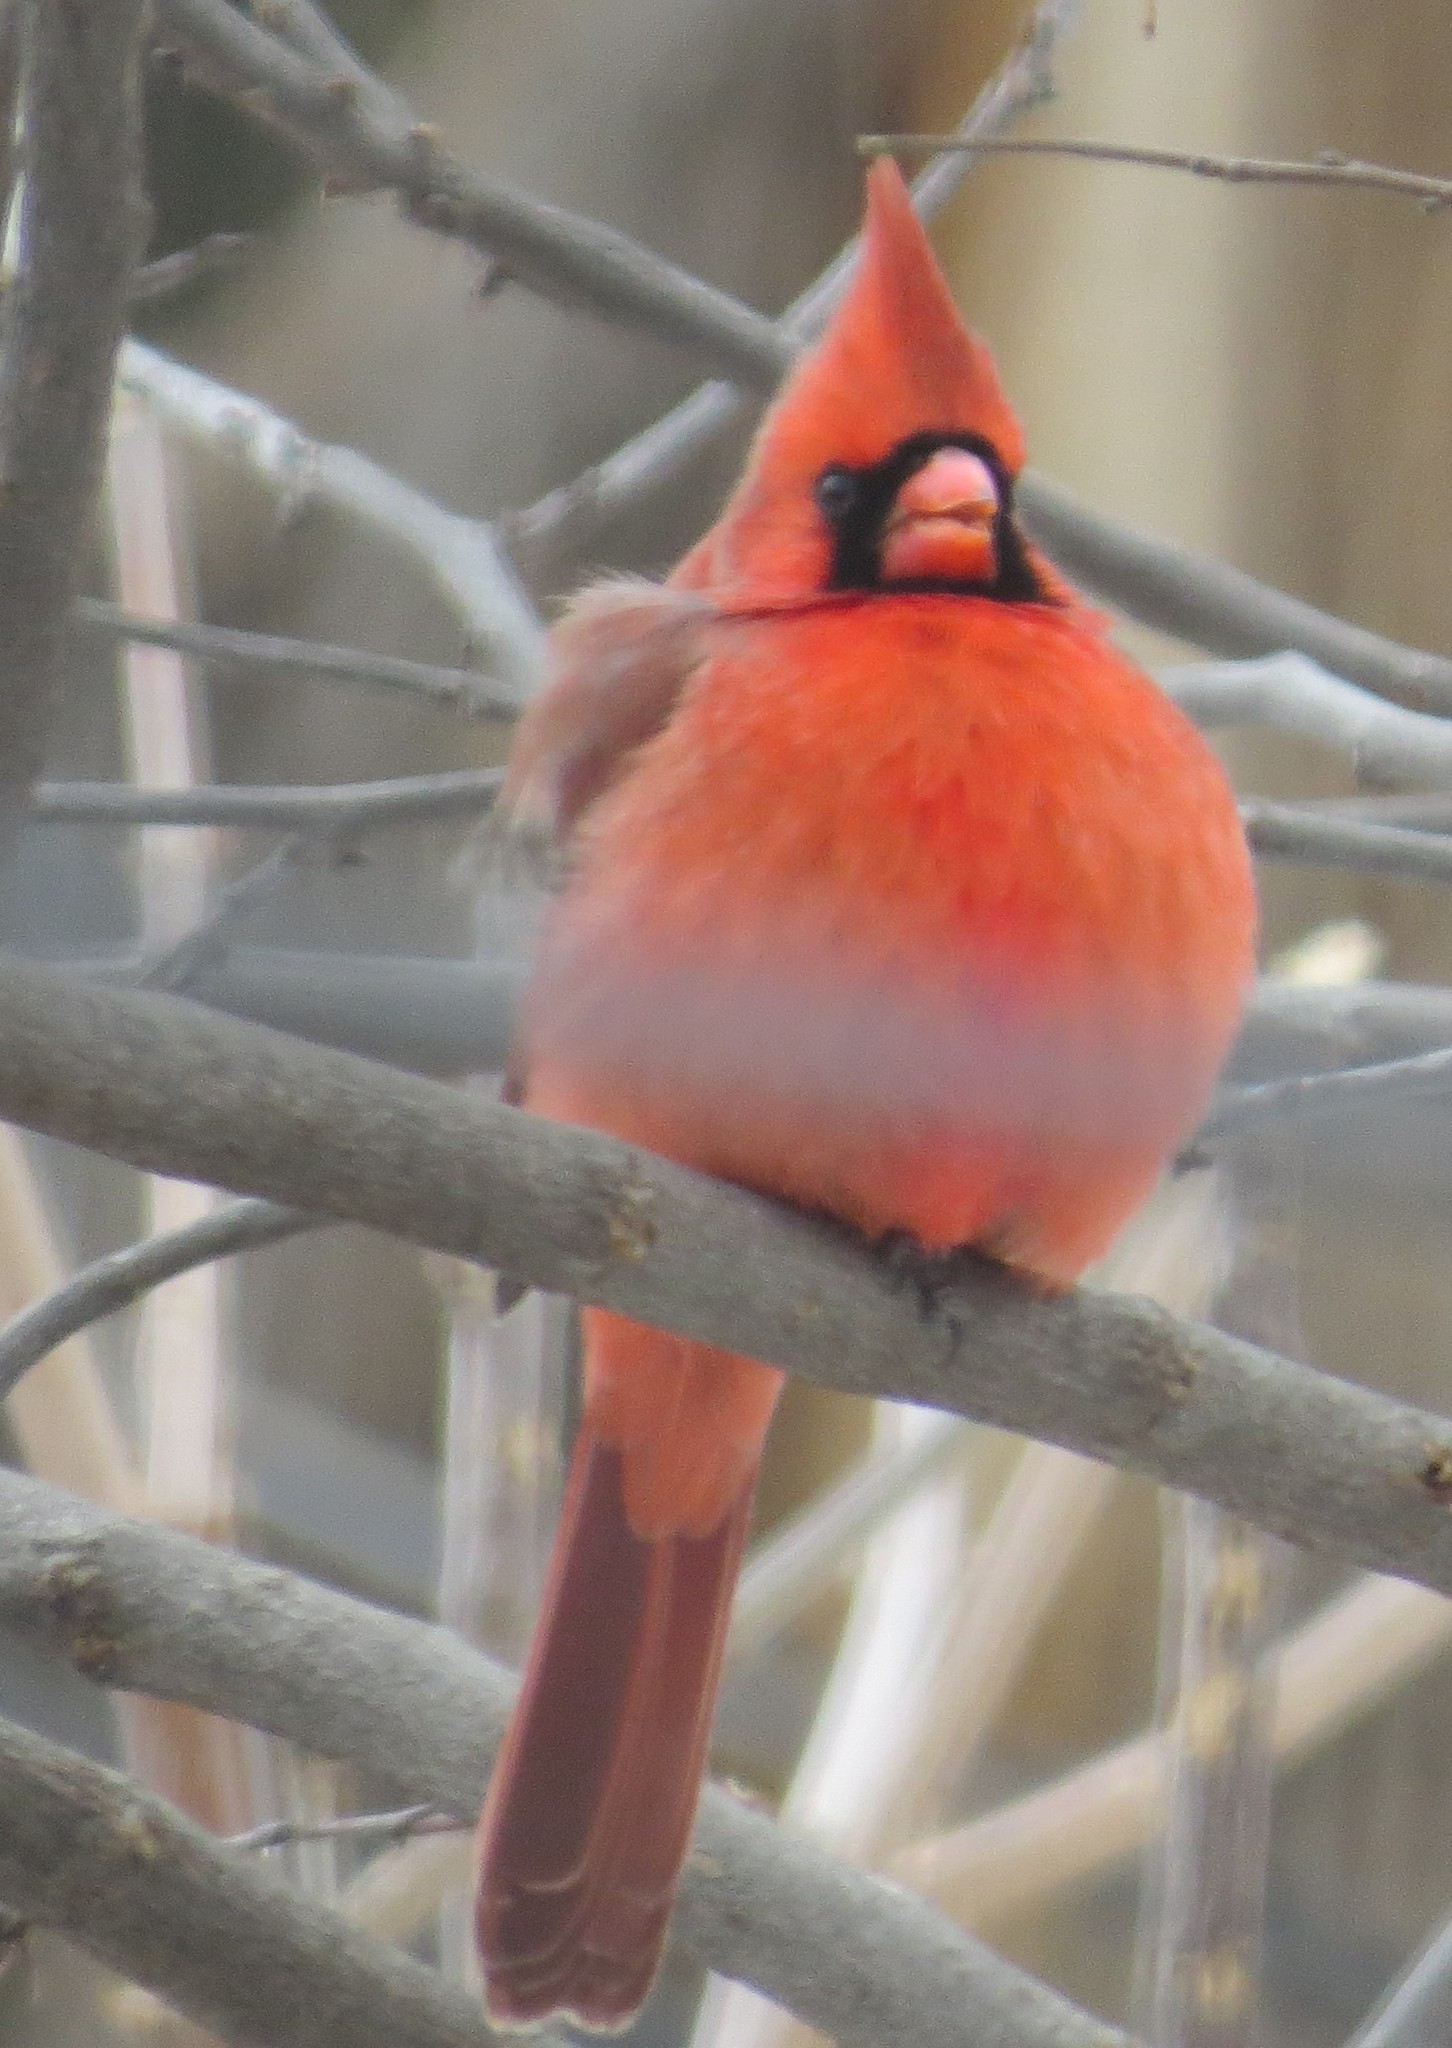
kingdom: Animalia
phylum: Chordata
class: Aves
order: Passeriformes
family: Cardinalidae
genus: Cardinalis
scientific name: Cardinalis cardinalis
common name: Northern cardinal
